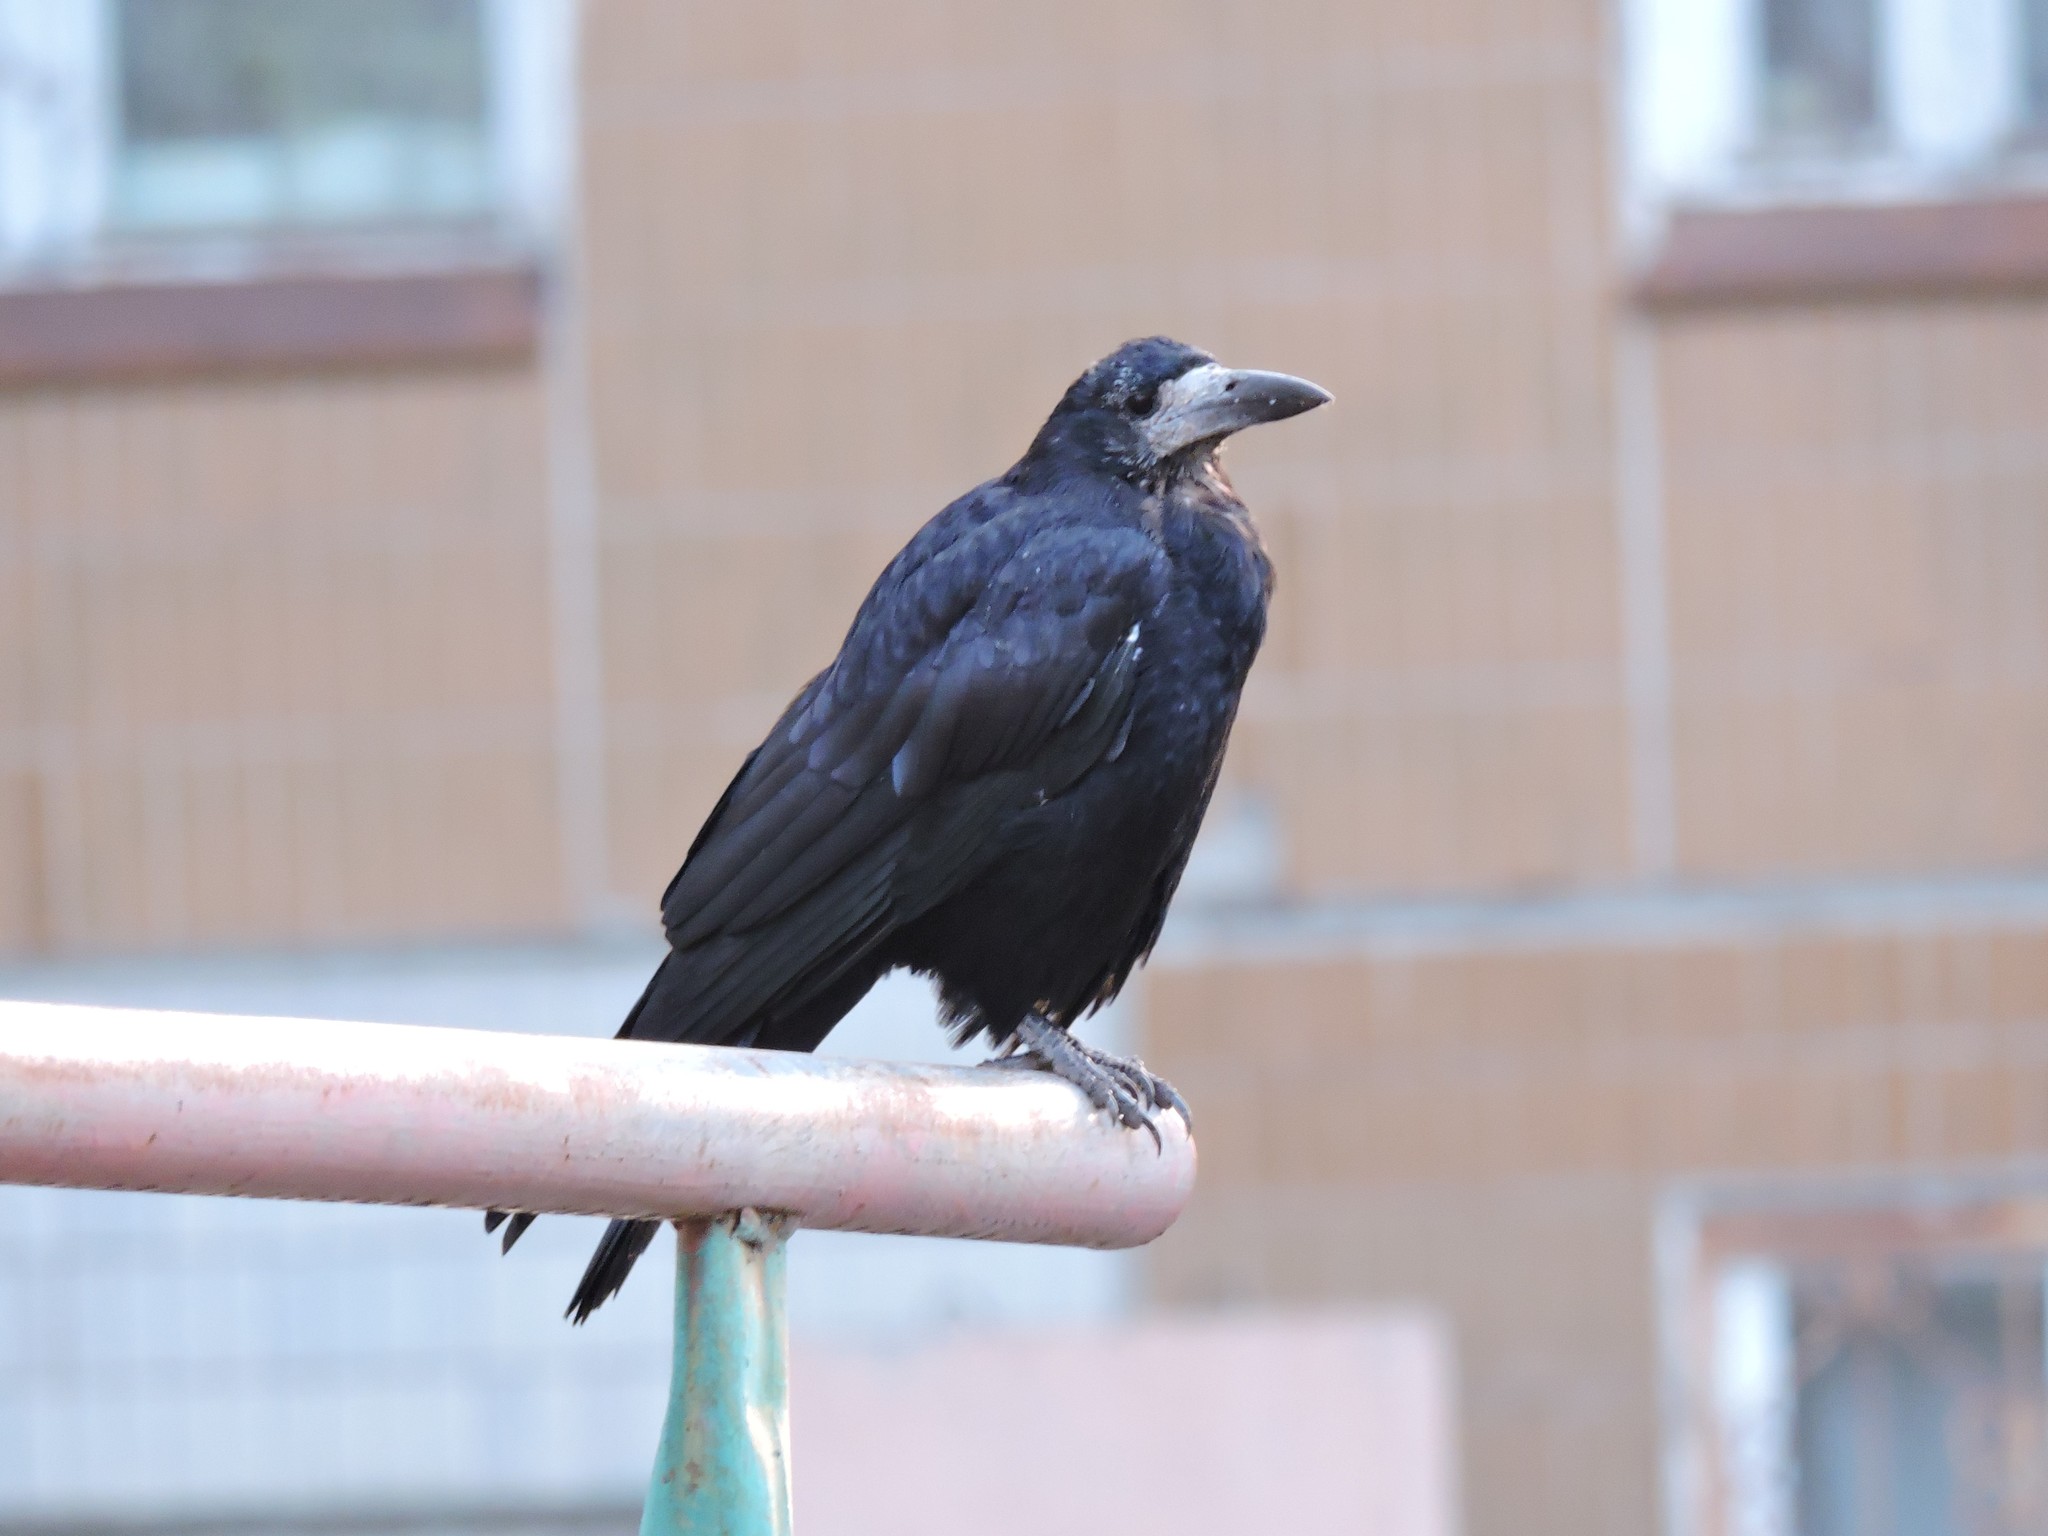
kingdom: Animalia
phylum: Chordata
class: Aves
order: Passeriformes
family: Corvidae
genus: Corvus
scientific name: Corvus frugilegus
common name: Rook
